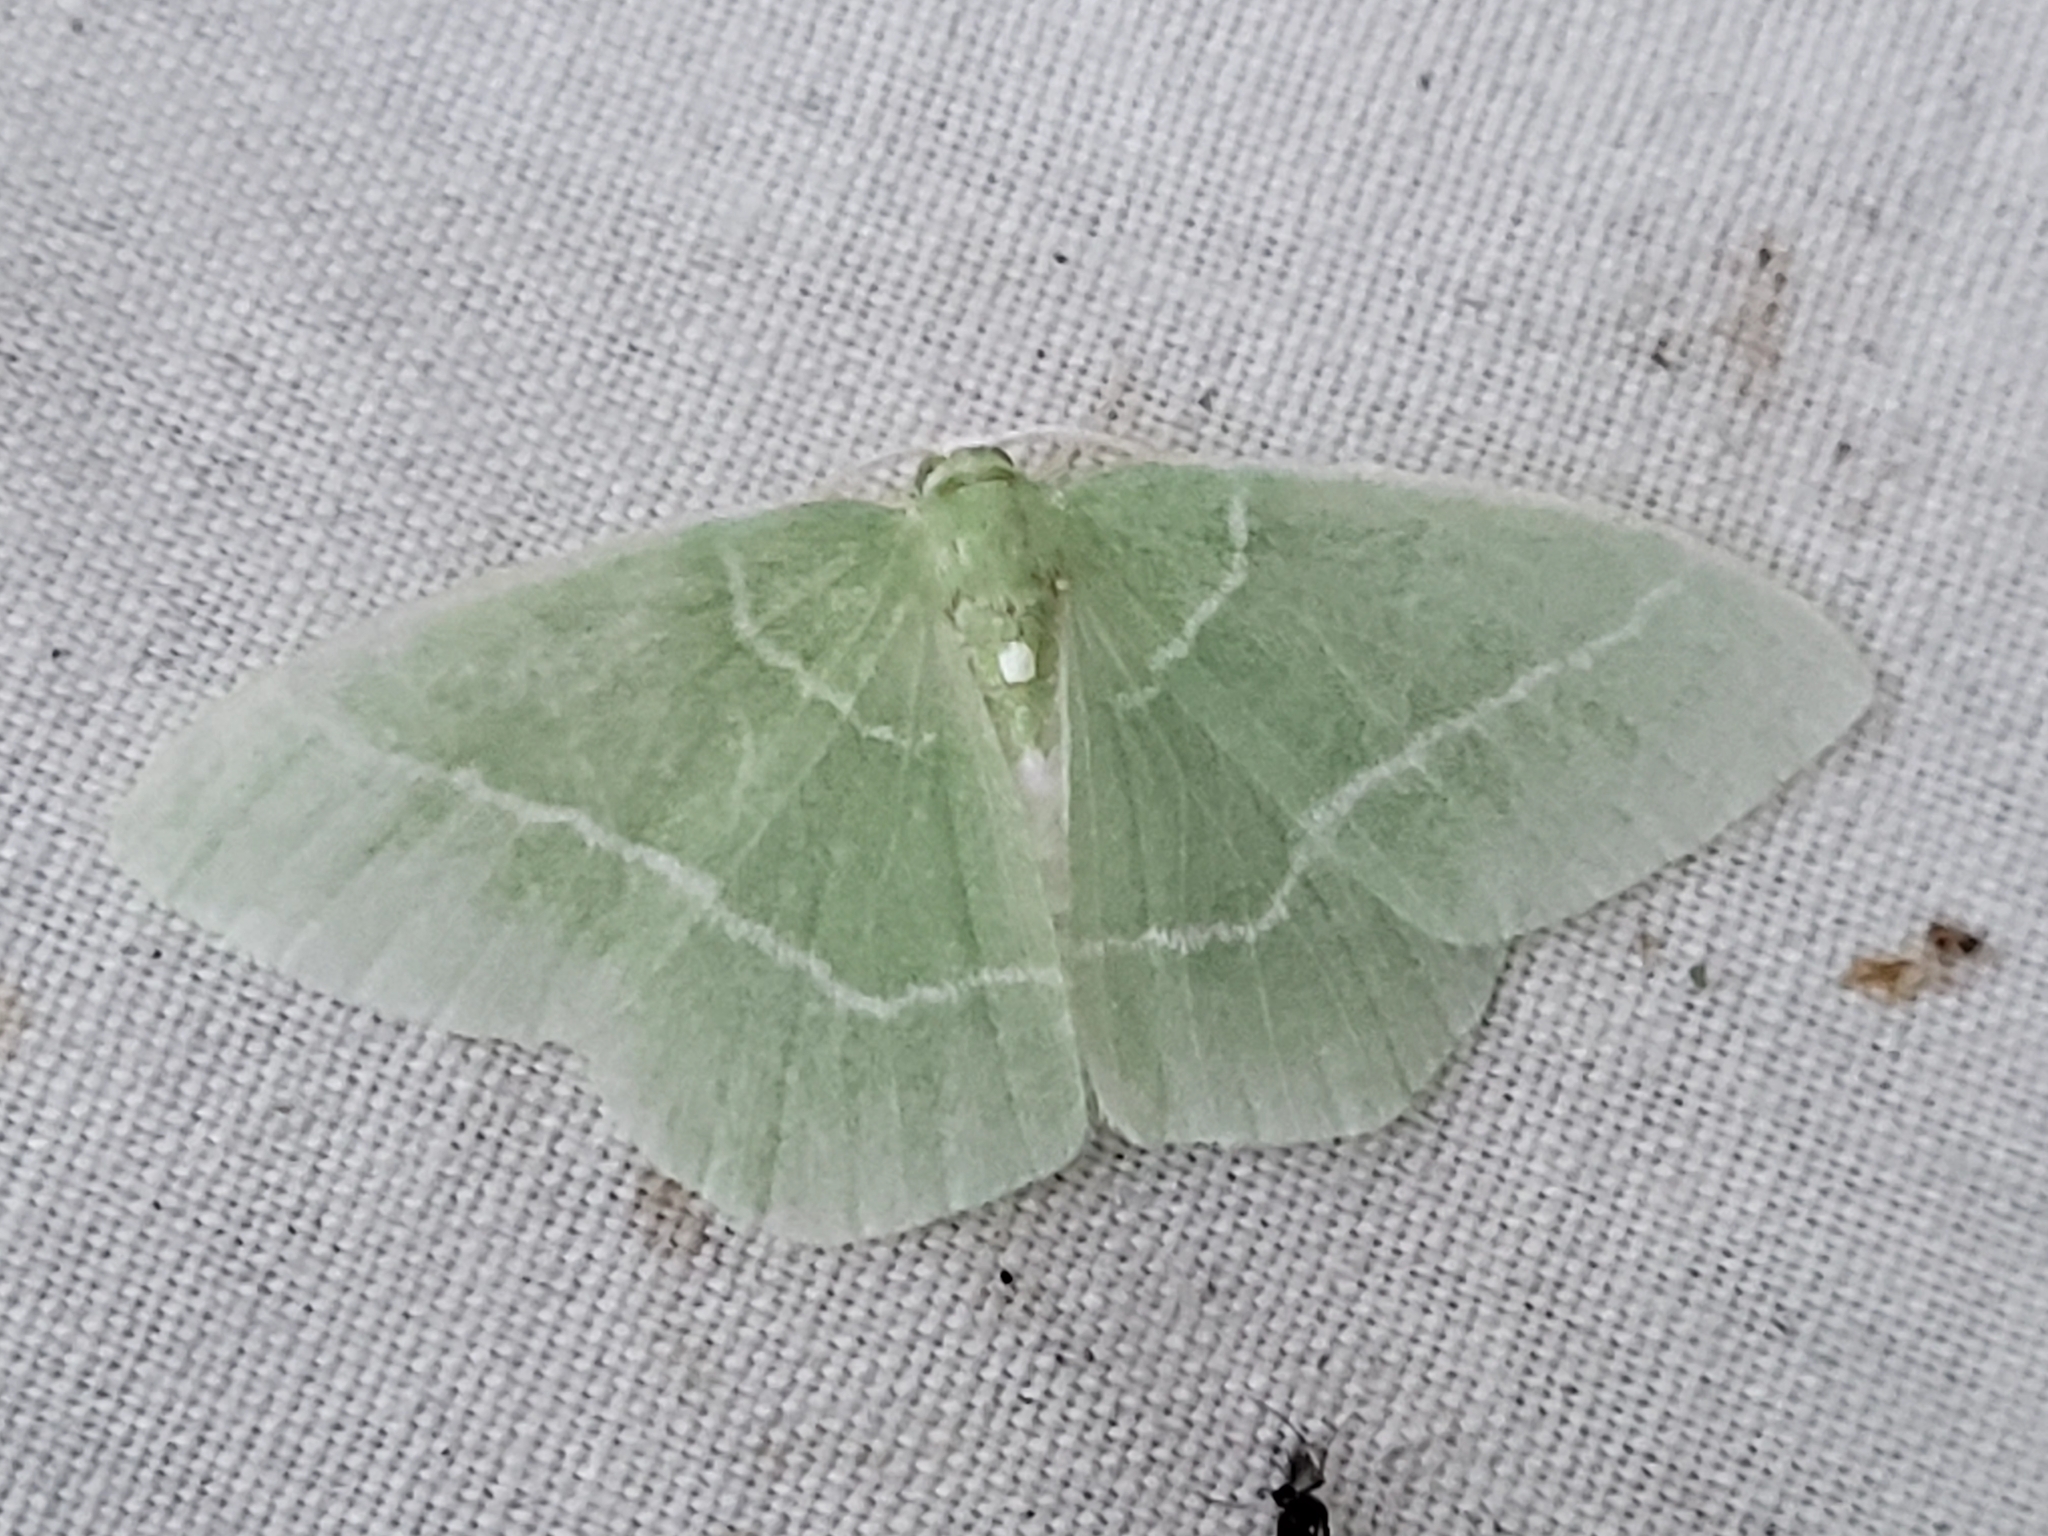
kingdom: Animalia
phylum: Arthropoda
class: Insecta
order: Lepidoptera
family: Geometridae
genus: Nemoria
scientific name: Nemoria mimosaria
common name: White-fringed emerald
